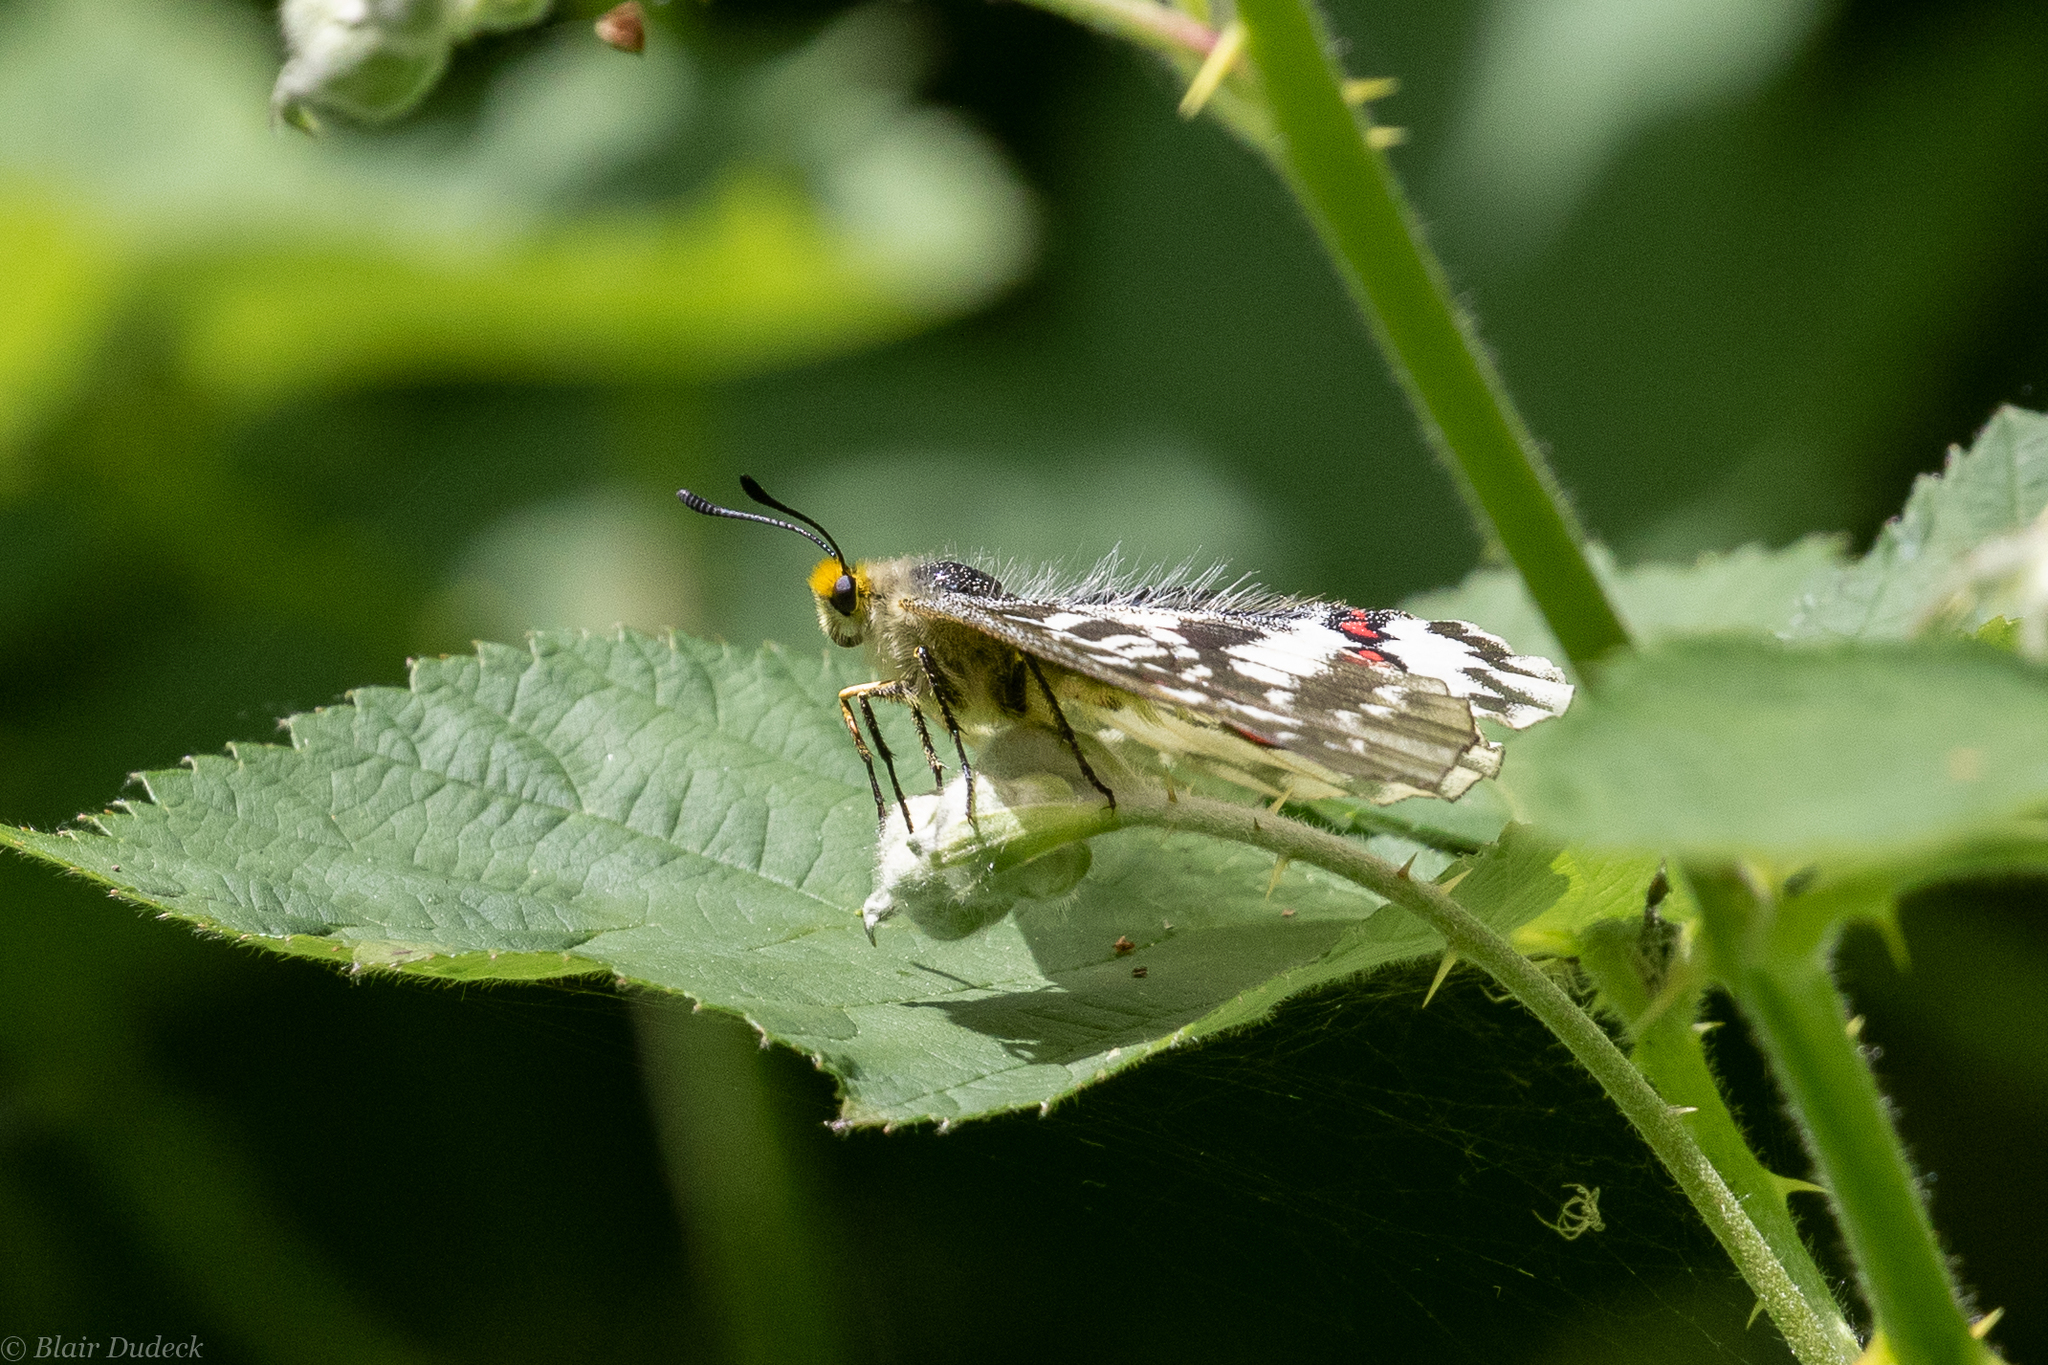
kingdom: Animalia
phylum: Arthropoda
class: Insecta
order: Lepidoptera
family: Papilionidae
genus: Parnassius
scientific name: Parnassius clodius
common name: American apollo
